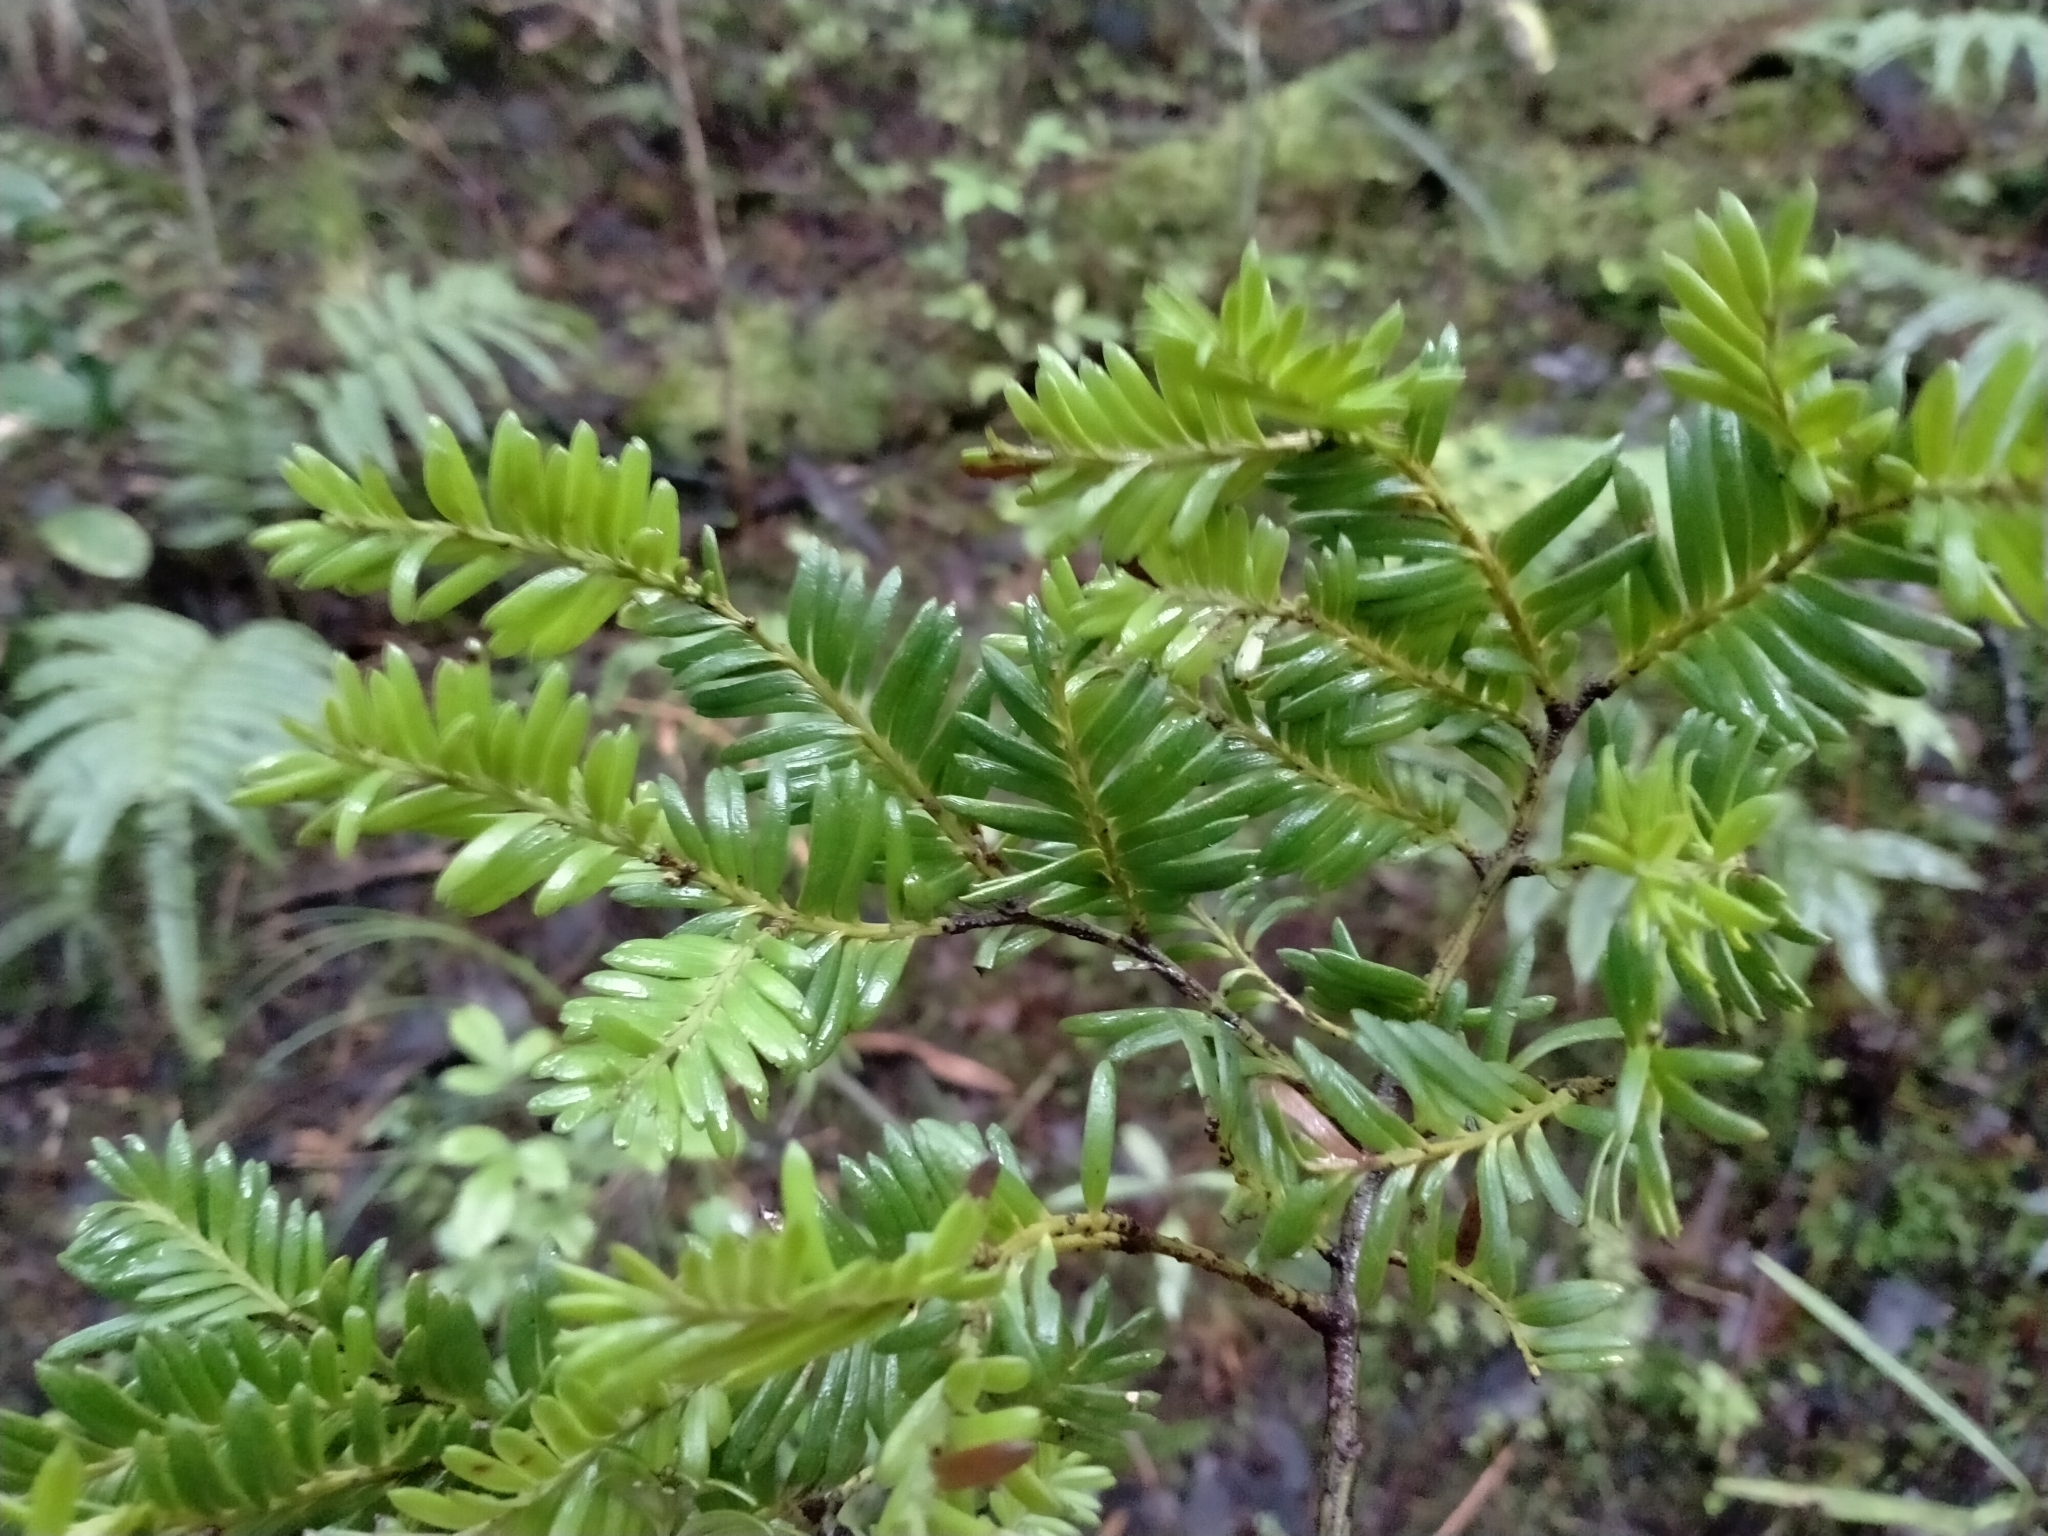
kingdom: Plantae
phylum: Tracheophyta
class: Pinopsida
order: Pinales
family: Podocarpaceae
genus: Prumnopitys
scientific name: Prumnopitys ferruginea
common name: Brown pine
